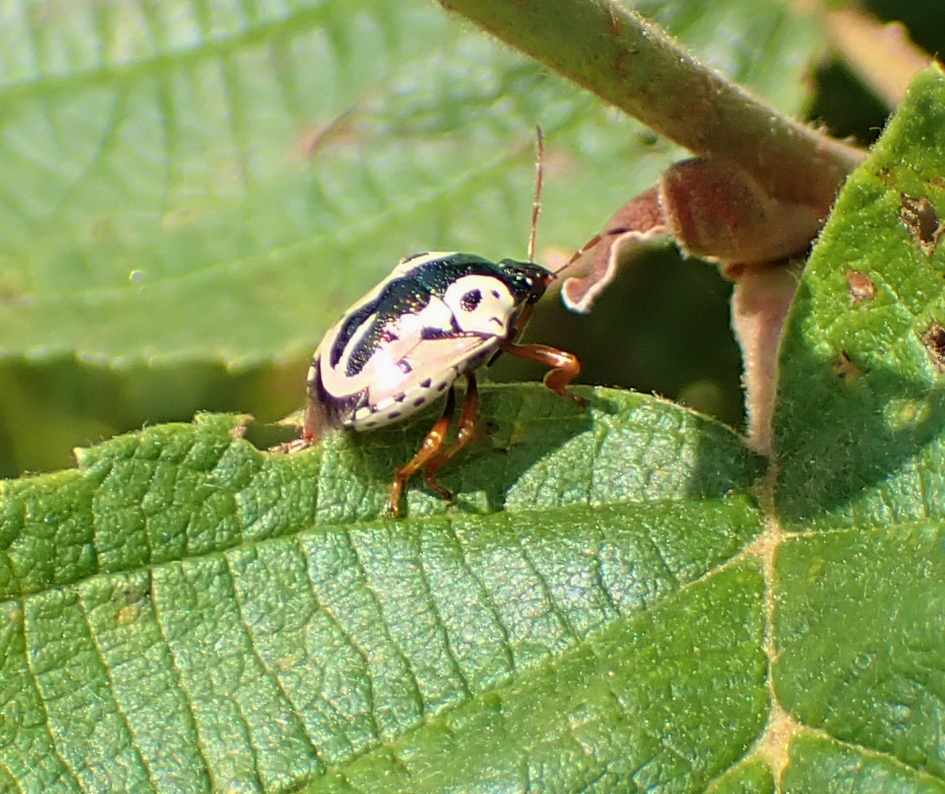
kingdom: Animalia
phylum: Arthropoda
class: Insecta
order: Hemiptera
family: Pentatomidae
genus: Stiretrus
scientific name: Stiretrus anchorago
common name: Anchor stink bug
